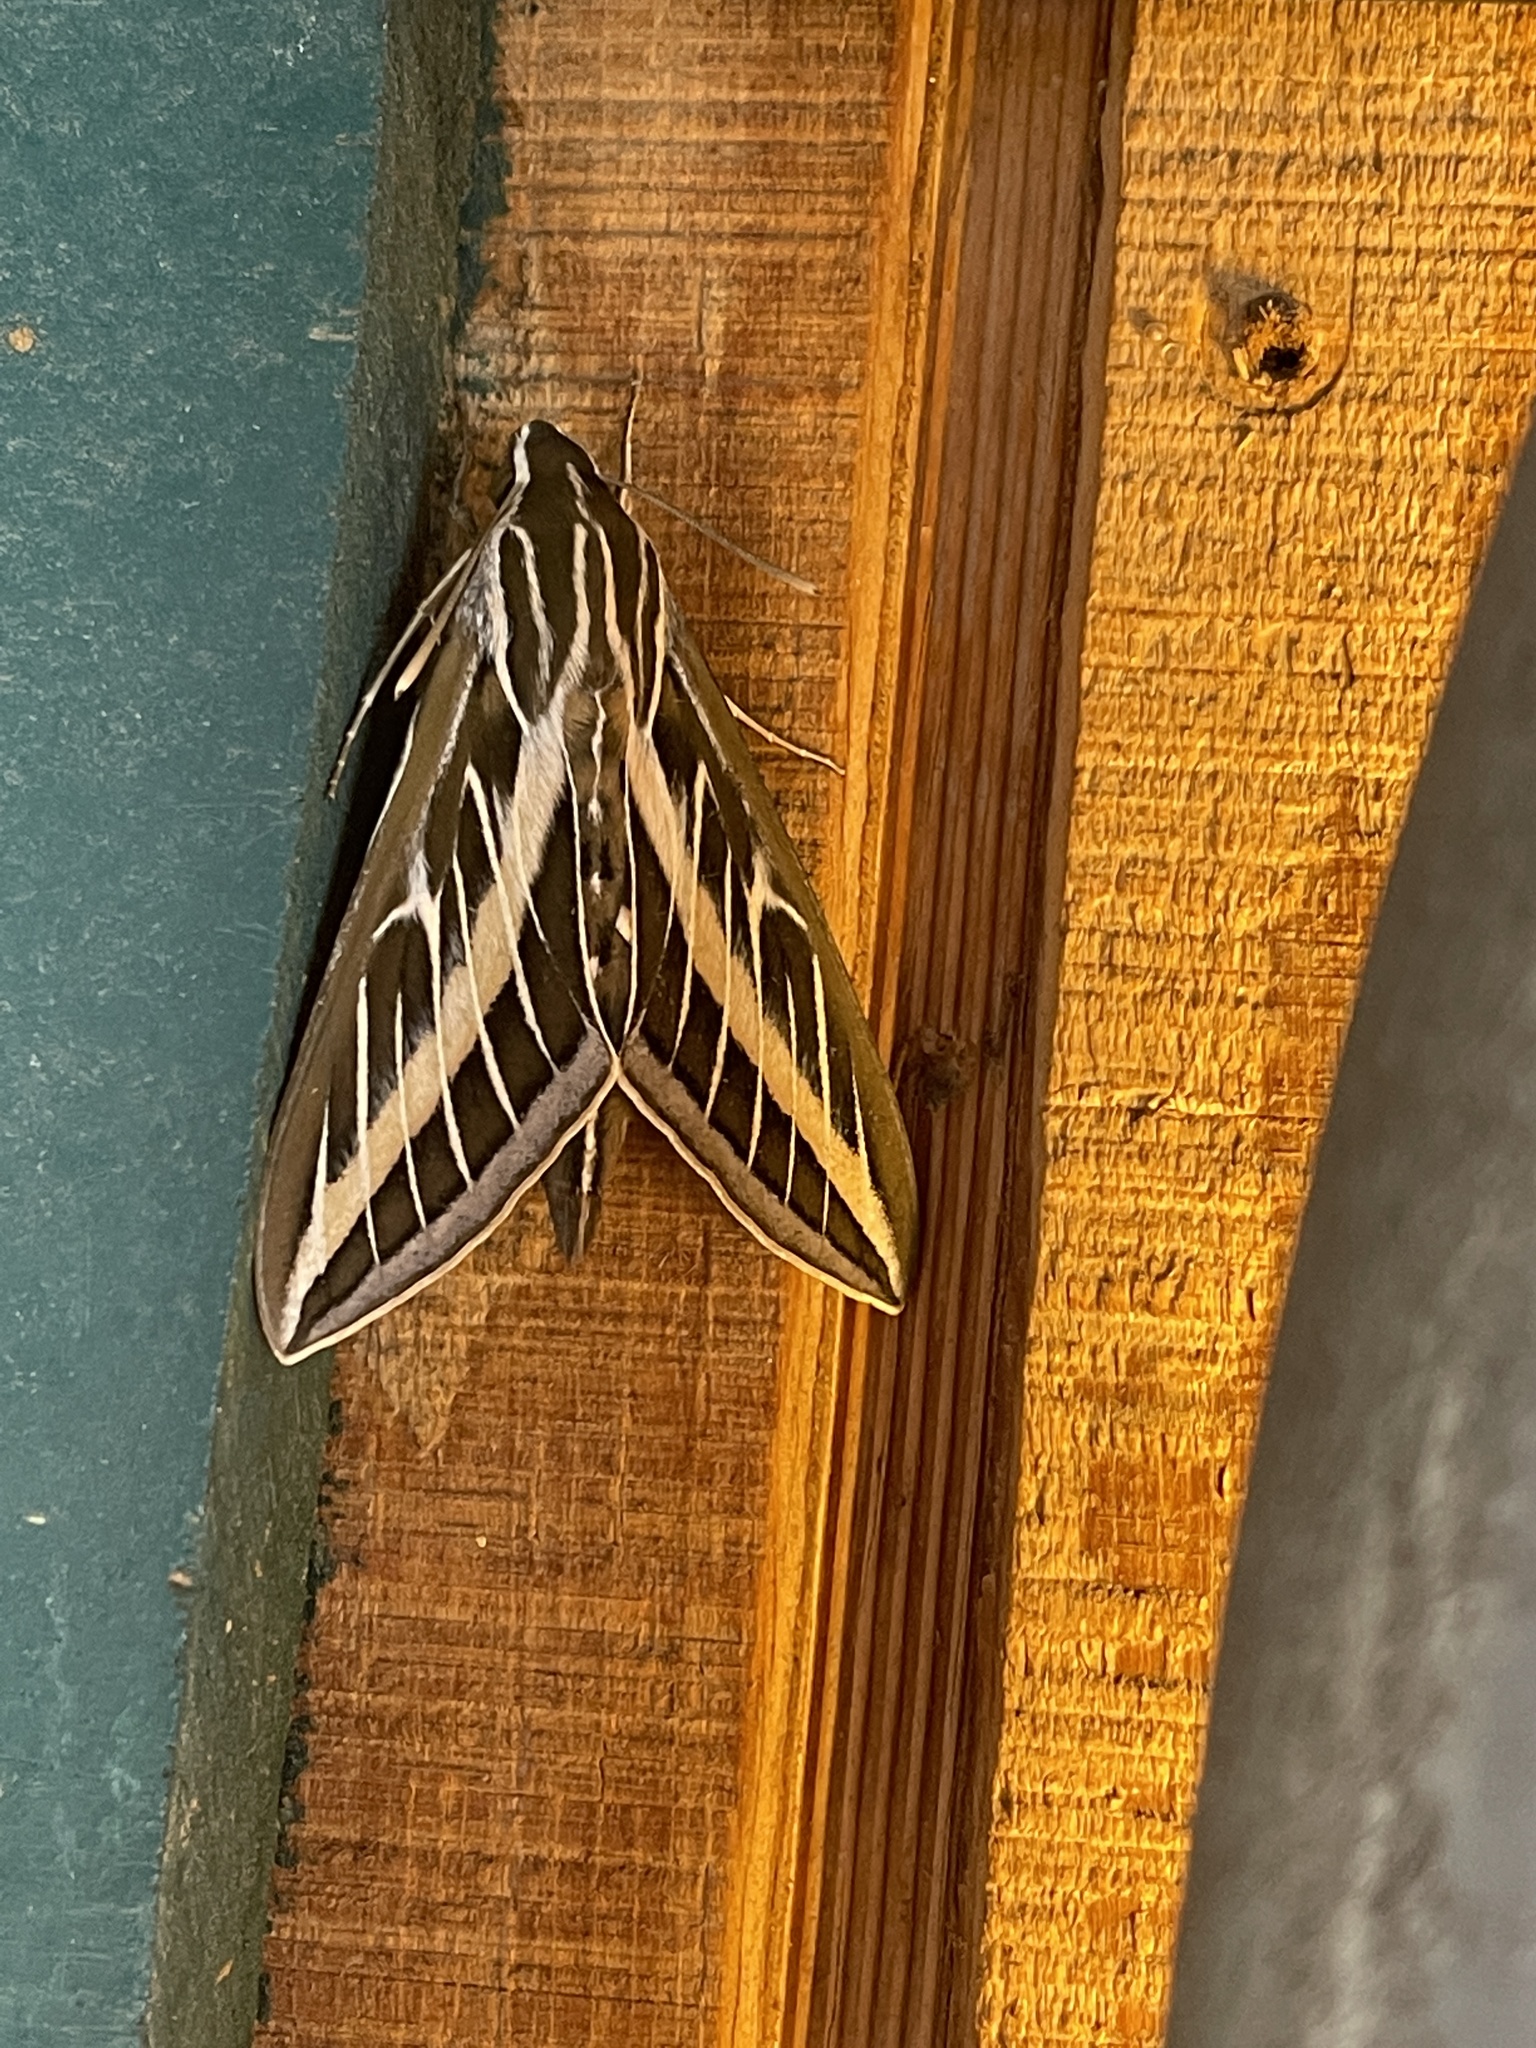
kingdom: Animalia
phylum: Arthropoda
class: Insecta
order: Lepidoptera
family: Sphingidae
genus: Hyles
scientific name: Hyles lineata
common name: White-lined sphinx
